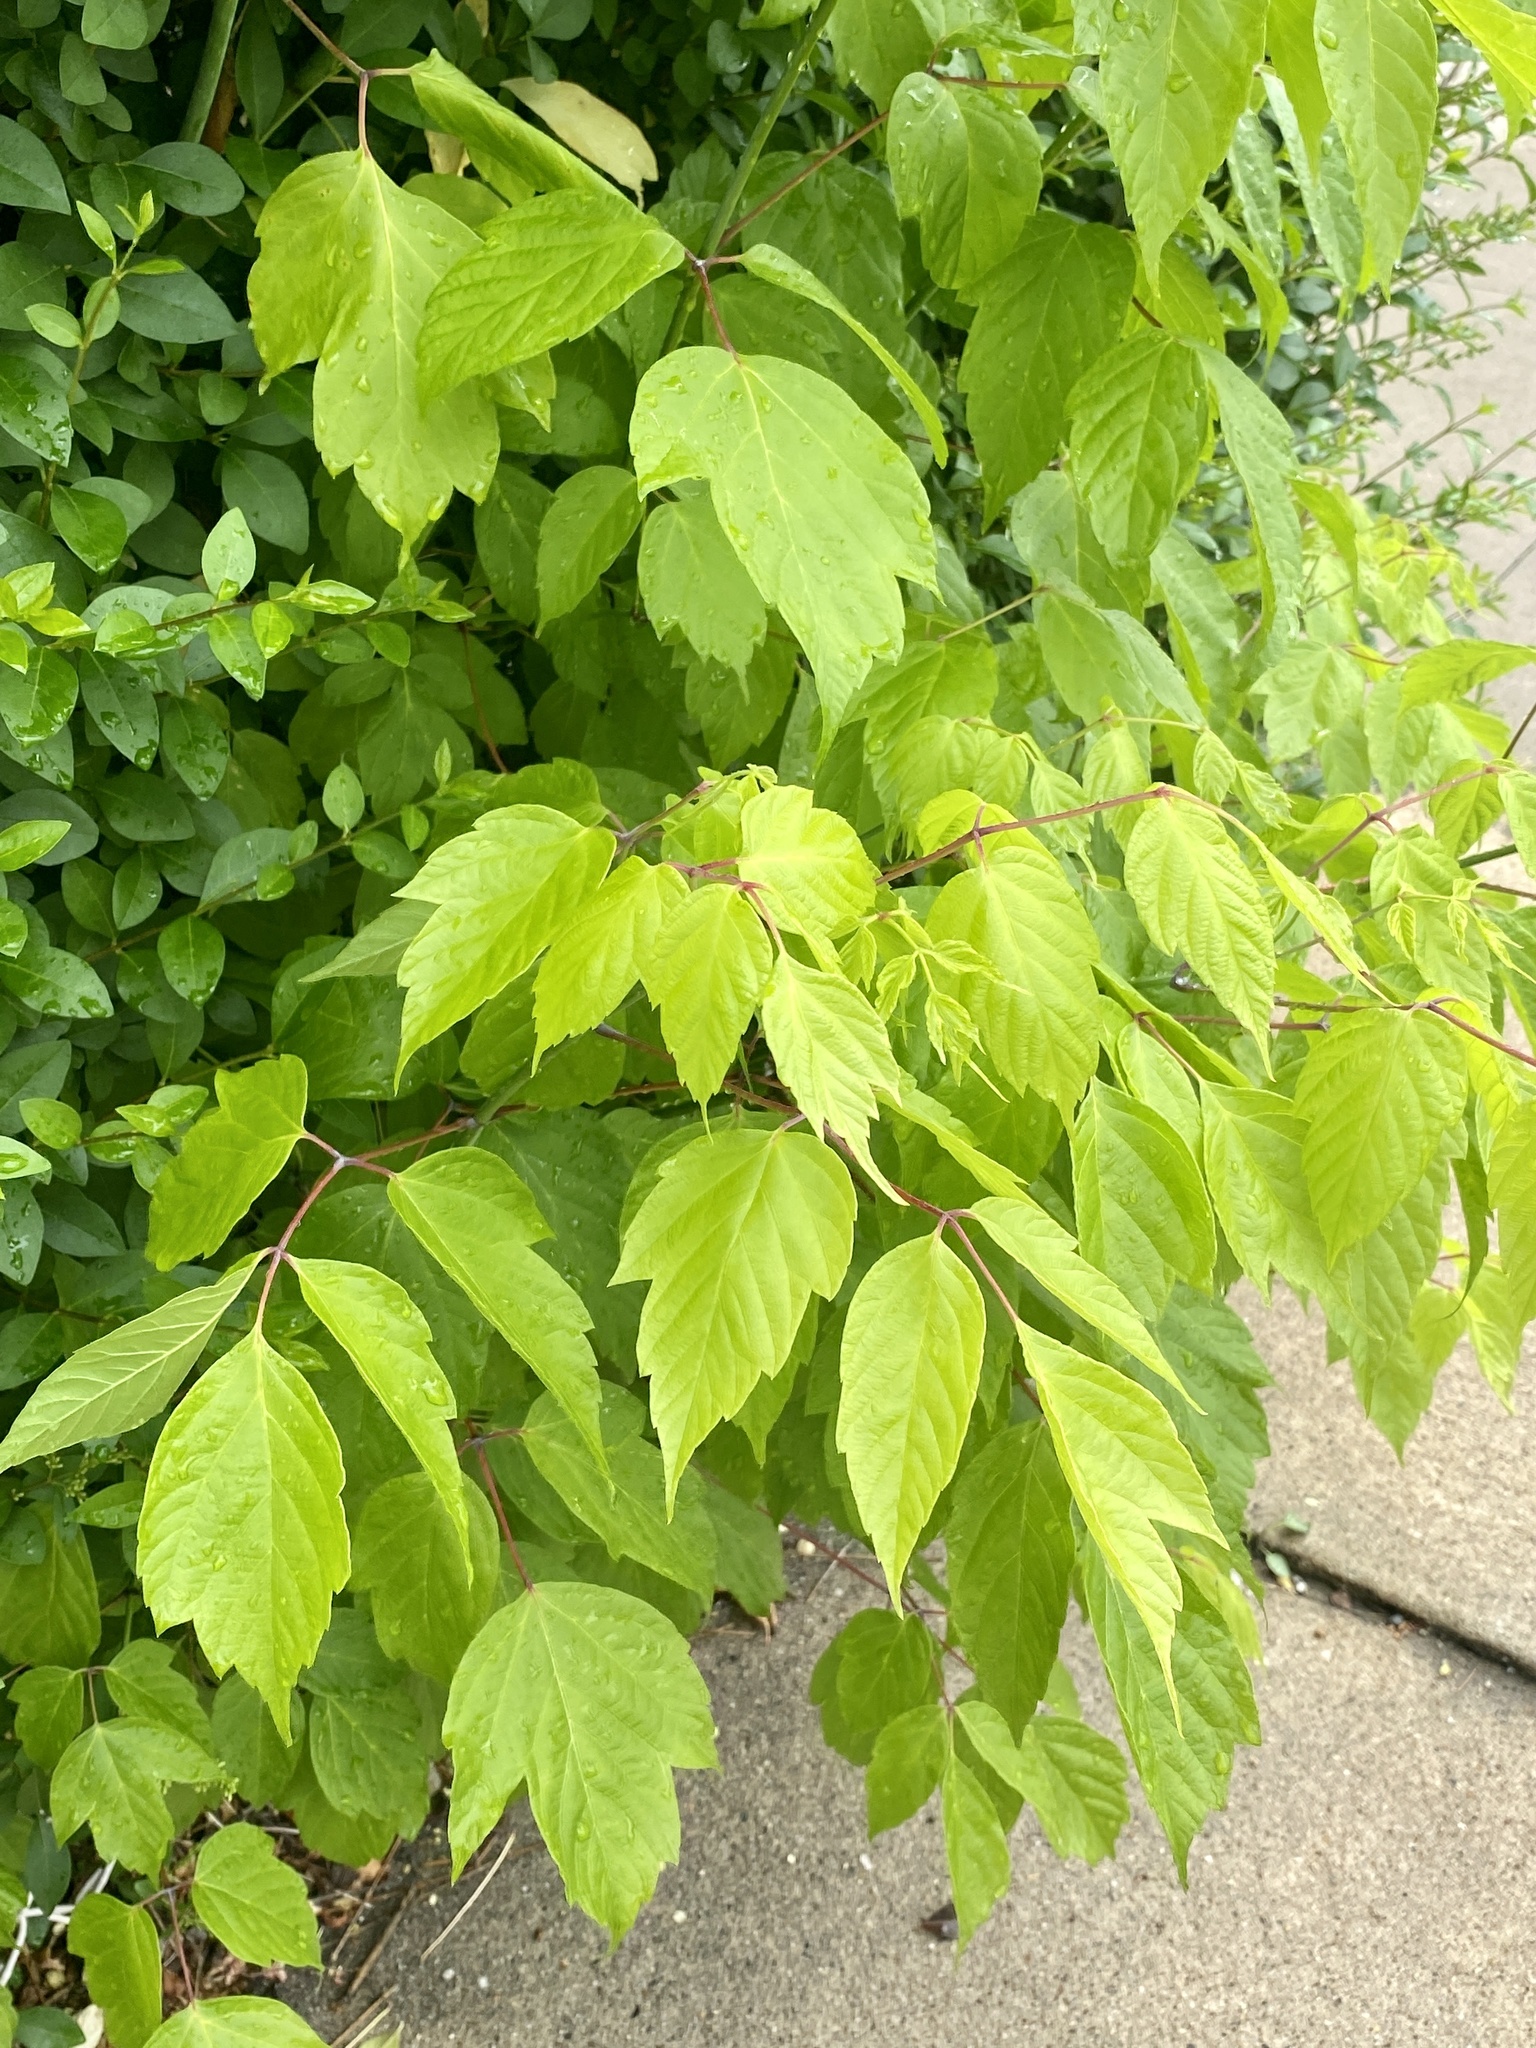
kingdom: Plantae
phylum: Tracheophyta
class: Magnoliopsida
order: Sapindales
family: Sapindaceae
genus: Acer
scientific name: Acer negundo
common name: Ashleaf maple
